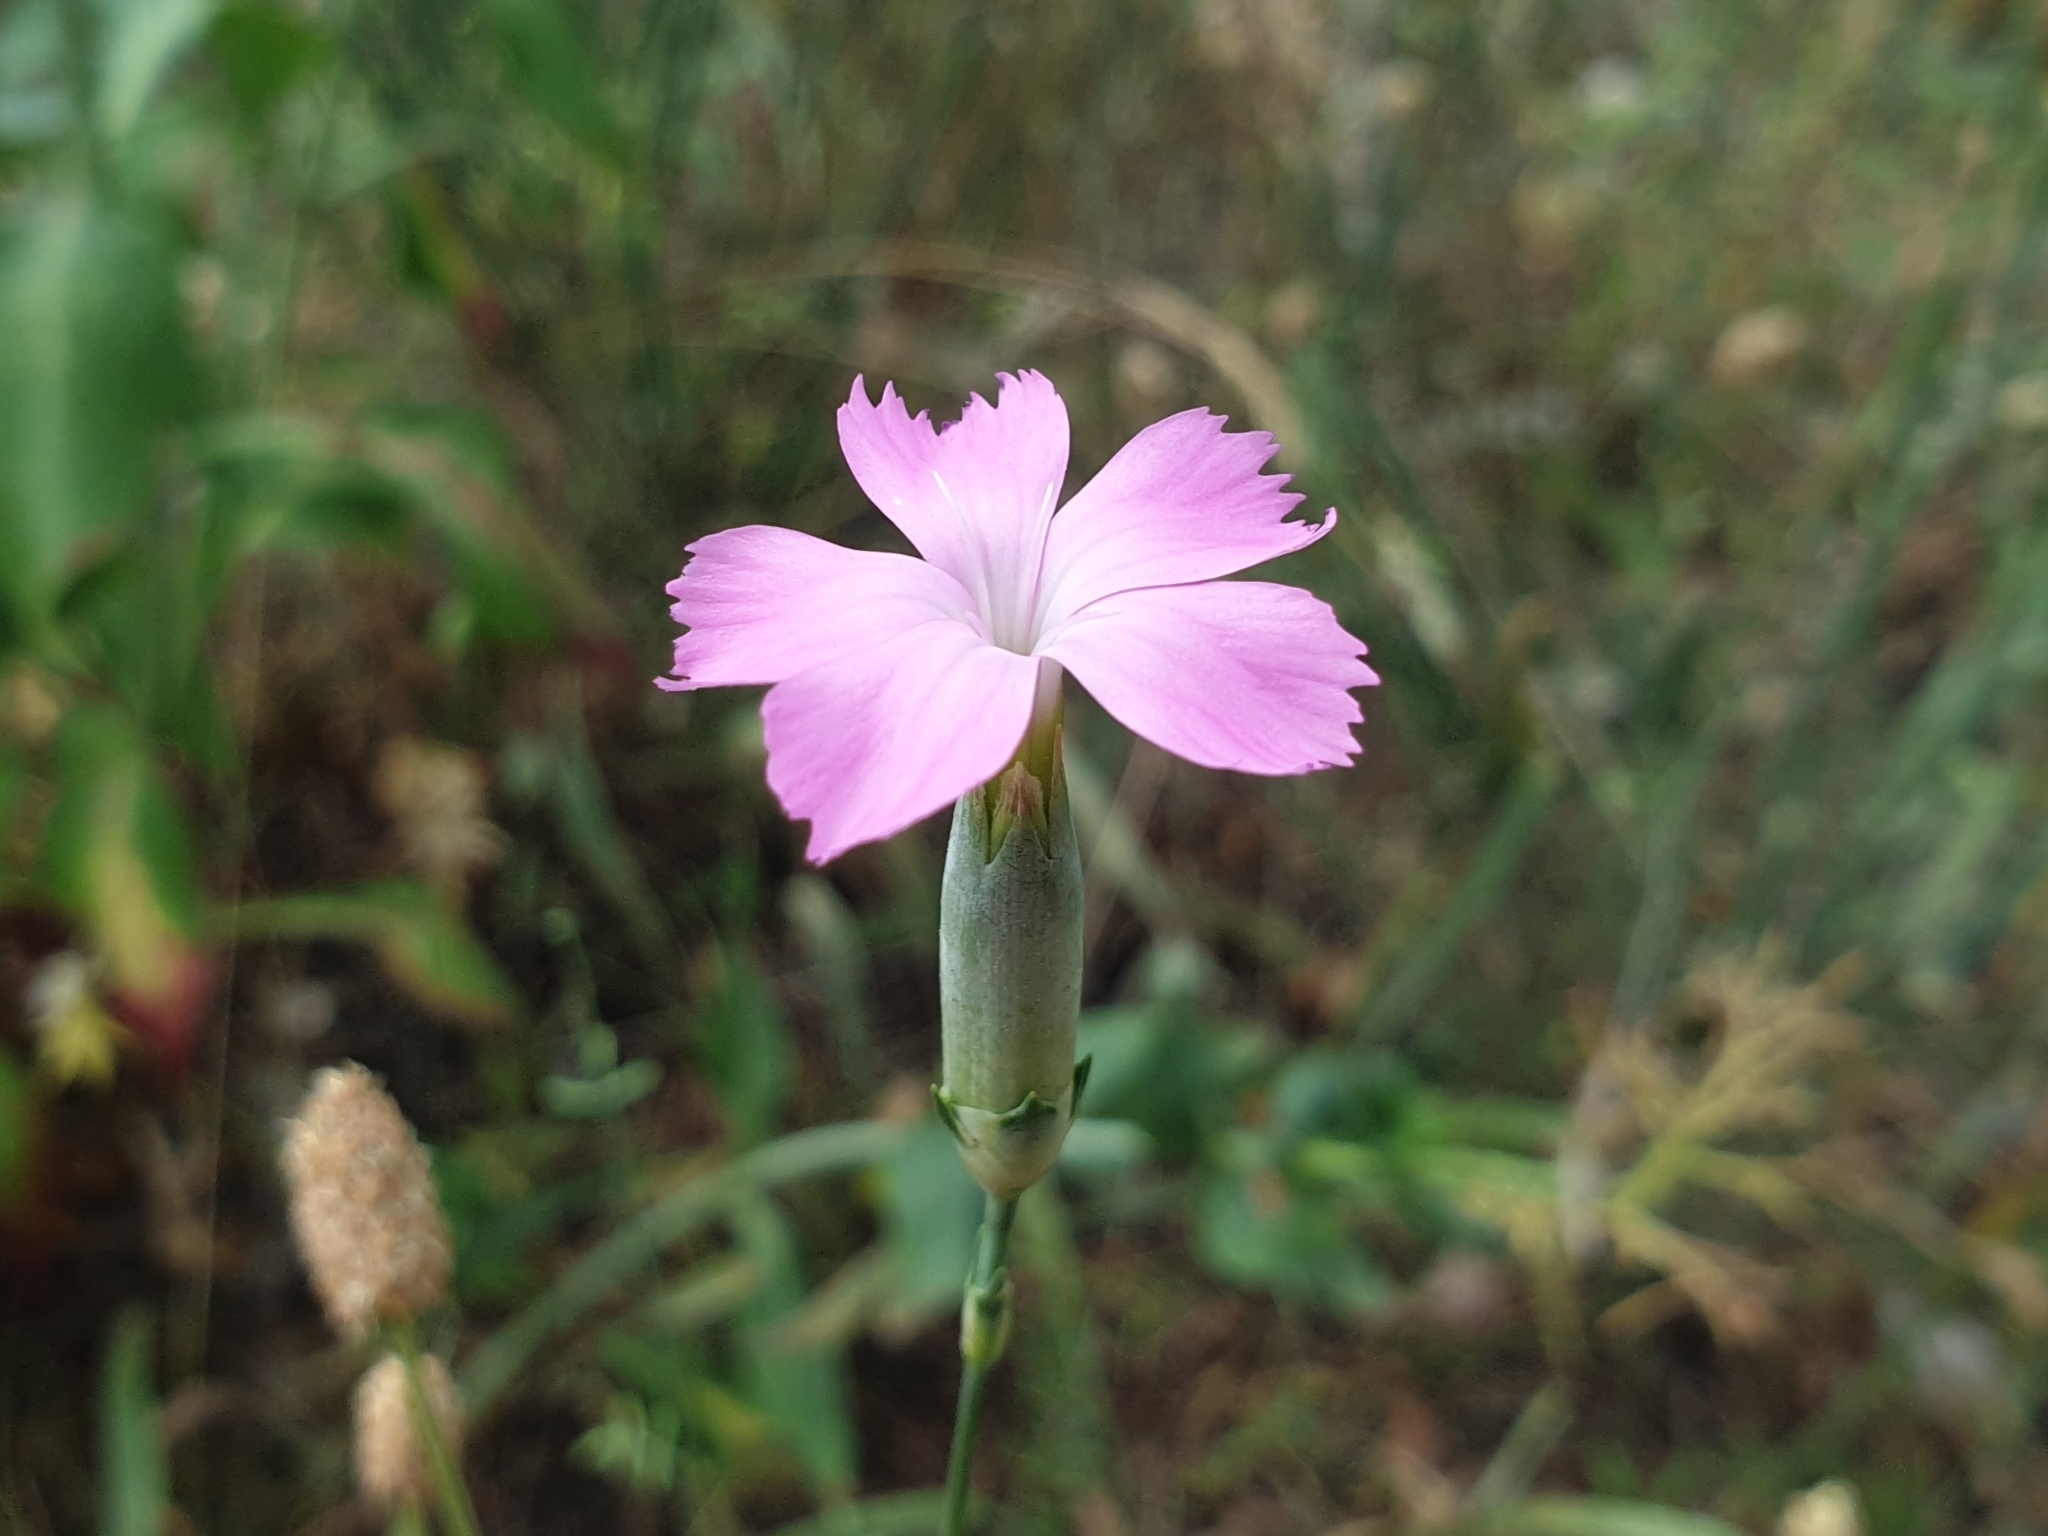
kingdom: Plantae
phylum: Tracheophyta
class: Magnoliopsida
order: Caryophyllales
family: Caryophyllaceae
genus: Dianthus
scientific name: Dianthus virgineus
